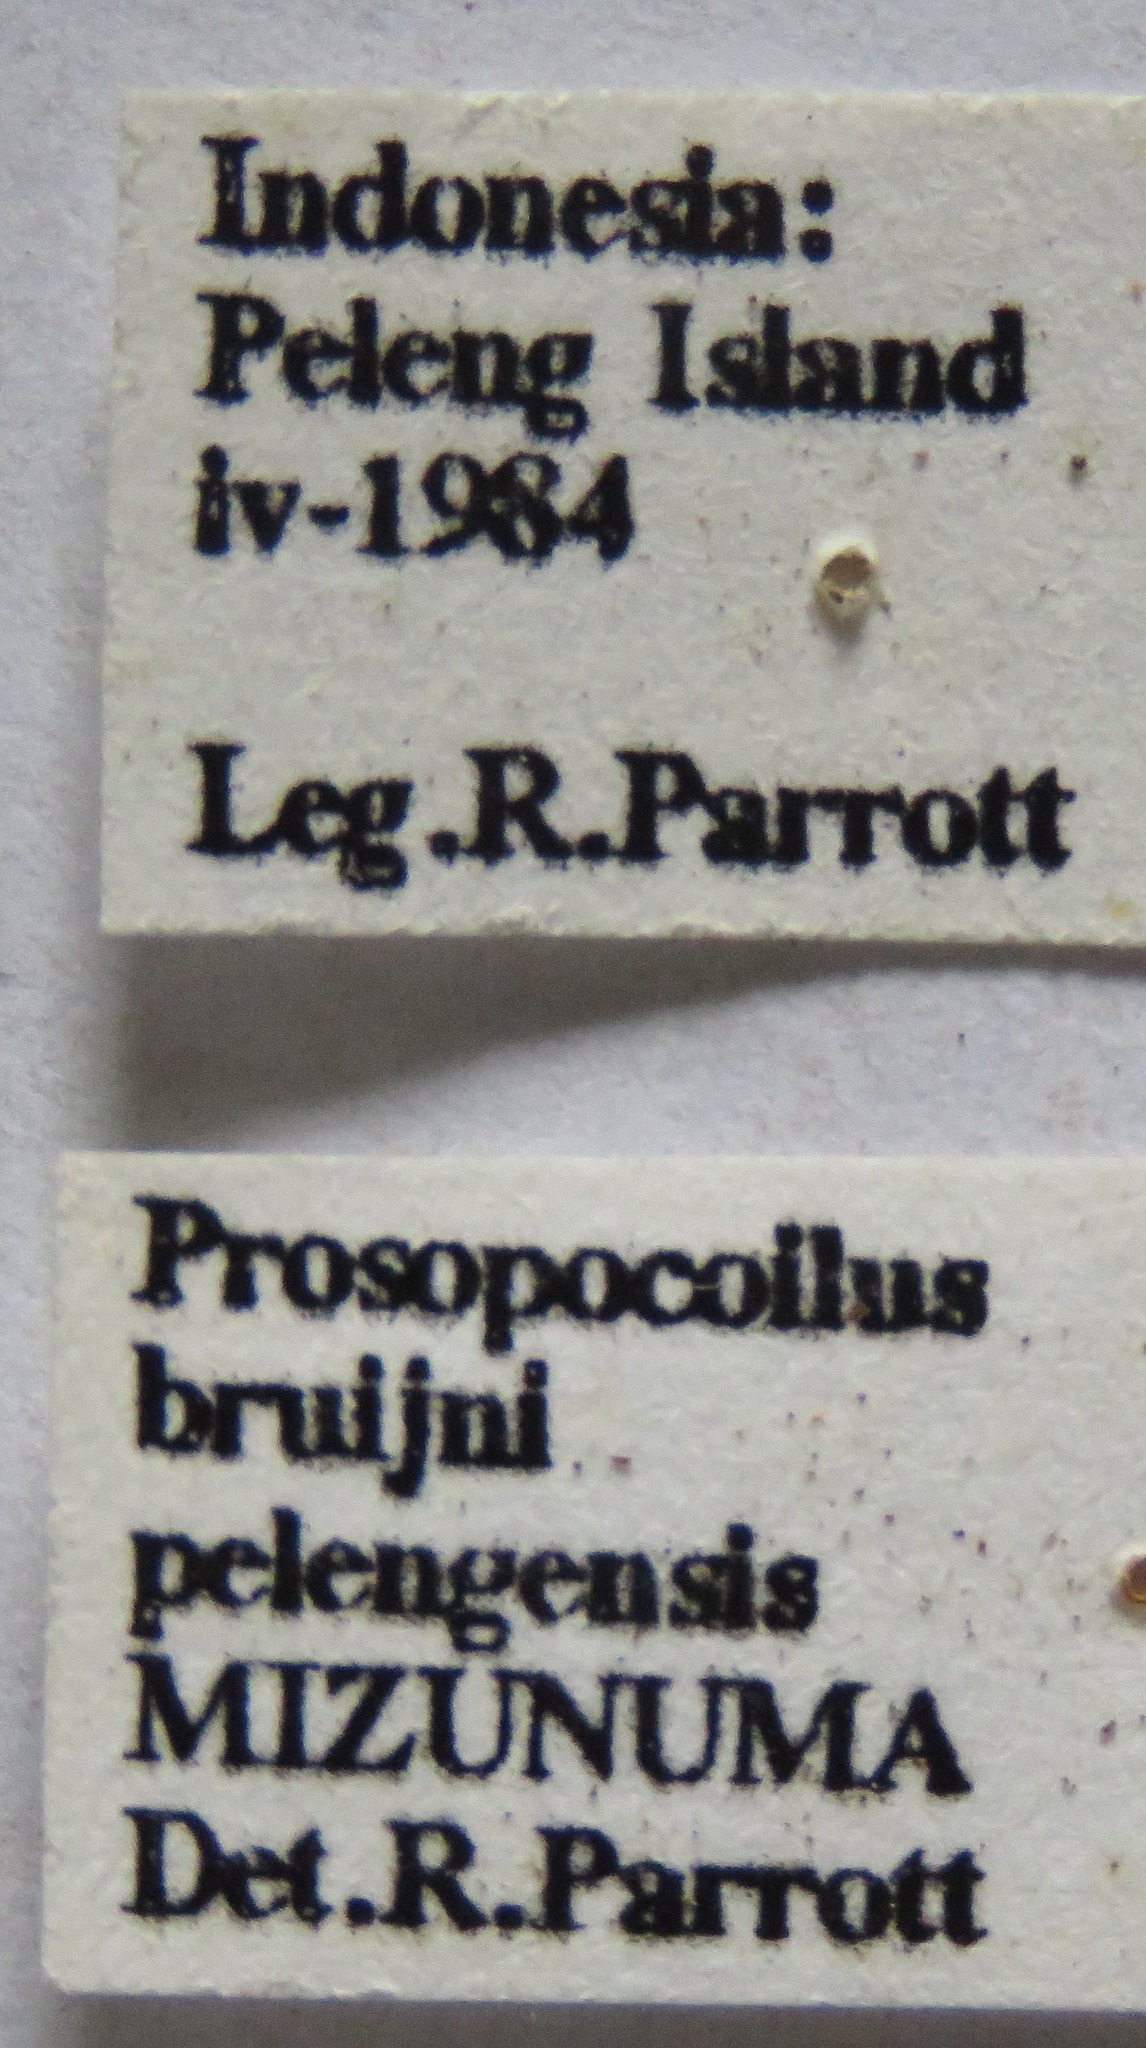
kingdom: Animalia
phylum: Arthropoda
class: Insecta
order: Coleoptera
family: Lucanidae
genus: Prosopocoilus
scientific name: Prosopocoilus bruijni
